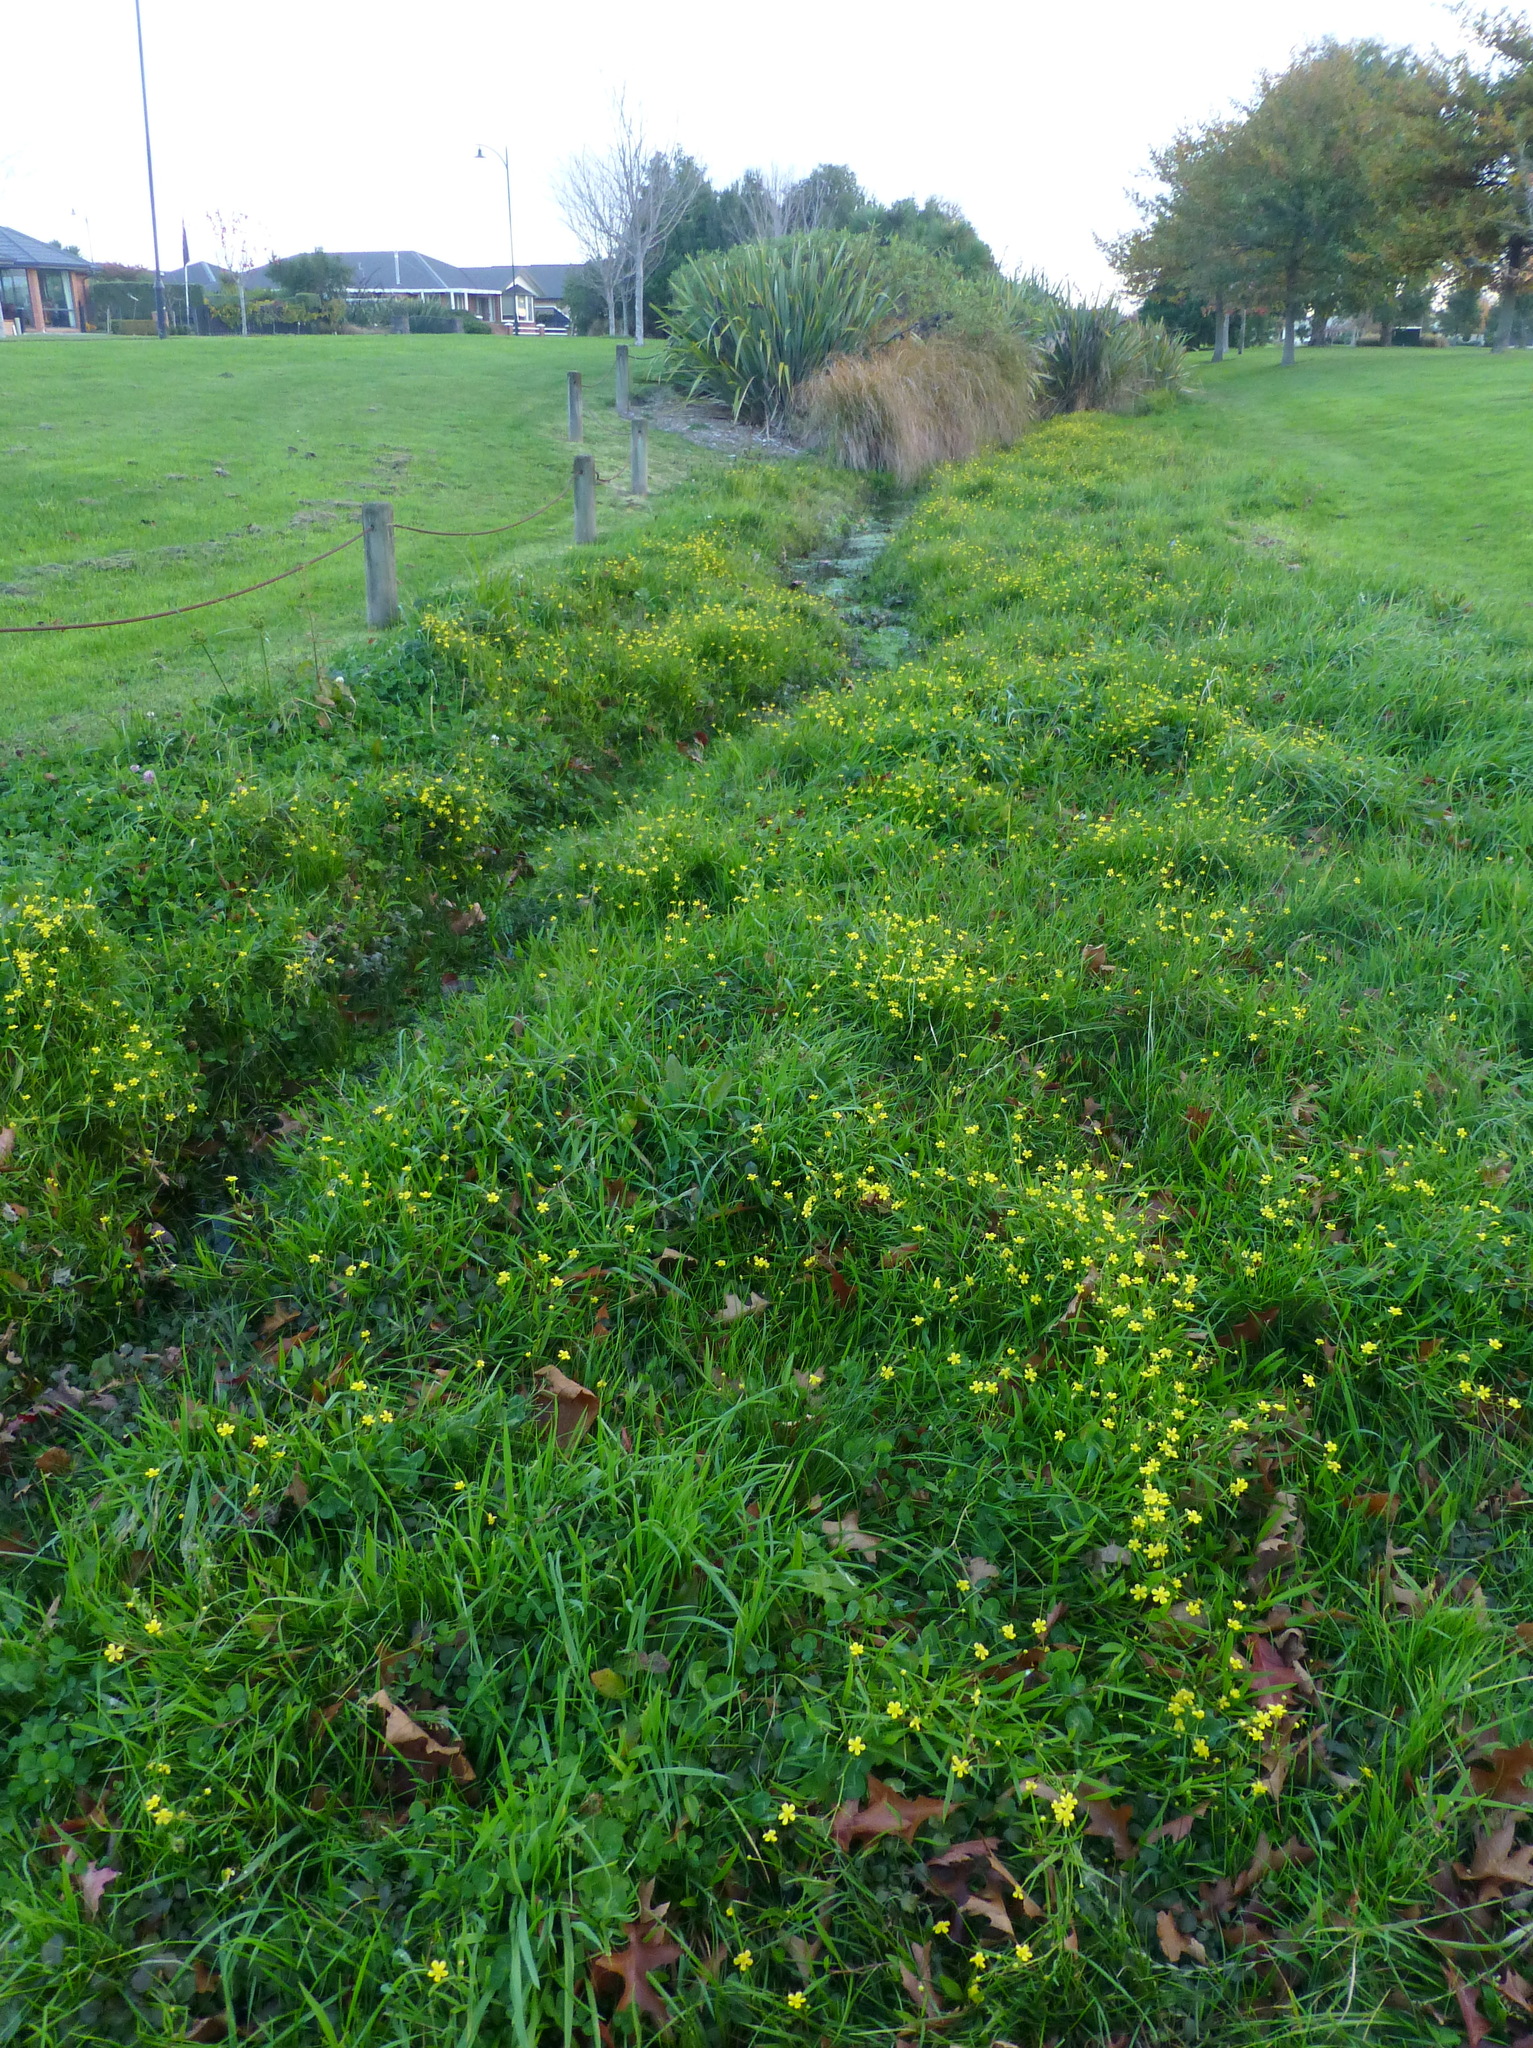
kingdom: Plantae
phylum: Tracheophyta
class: Magnoliopsida
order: Ranunculales
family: Ranunculaceae
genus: Ranunculus
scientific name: Ranunculus flammula
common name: Lesser spearwort
